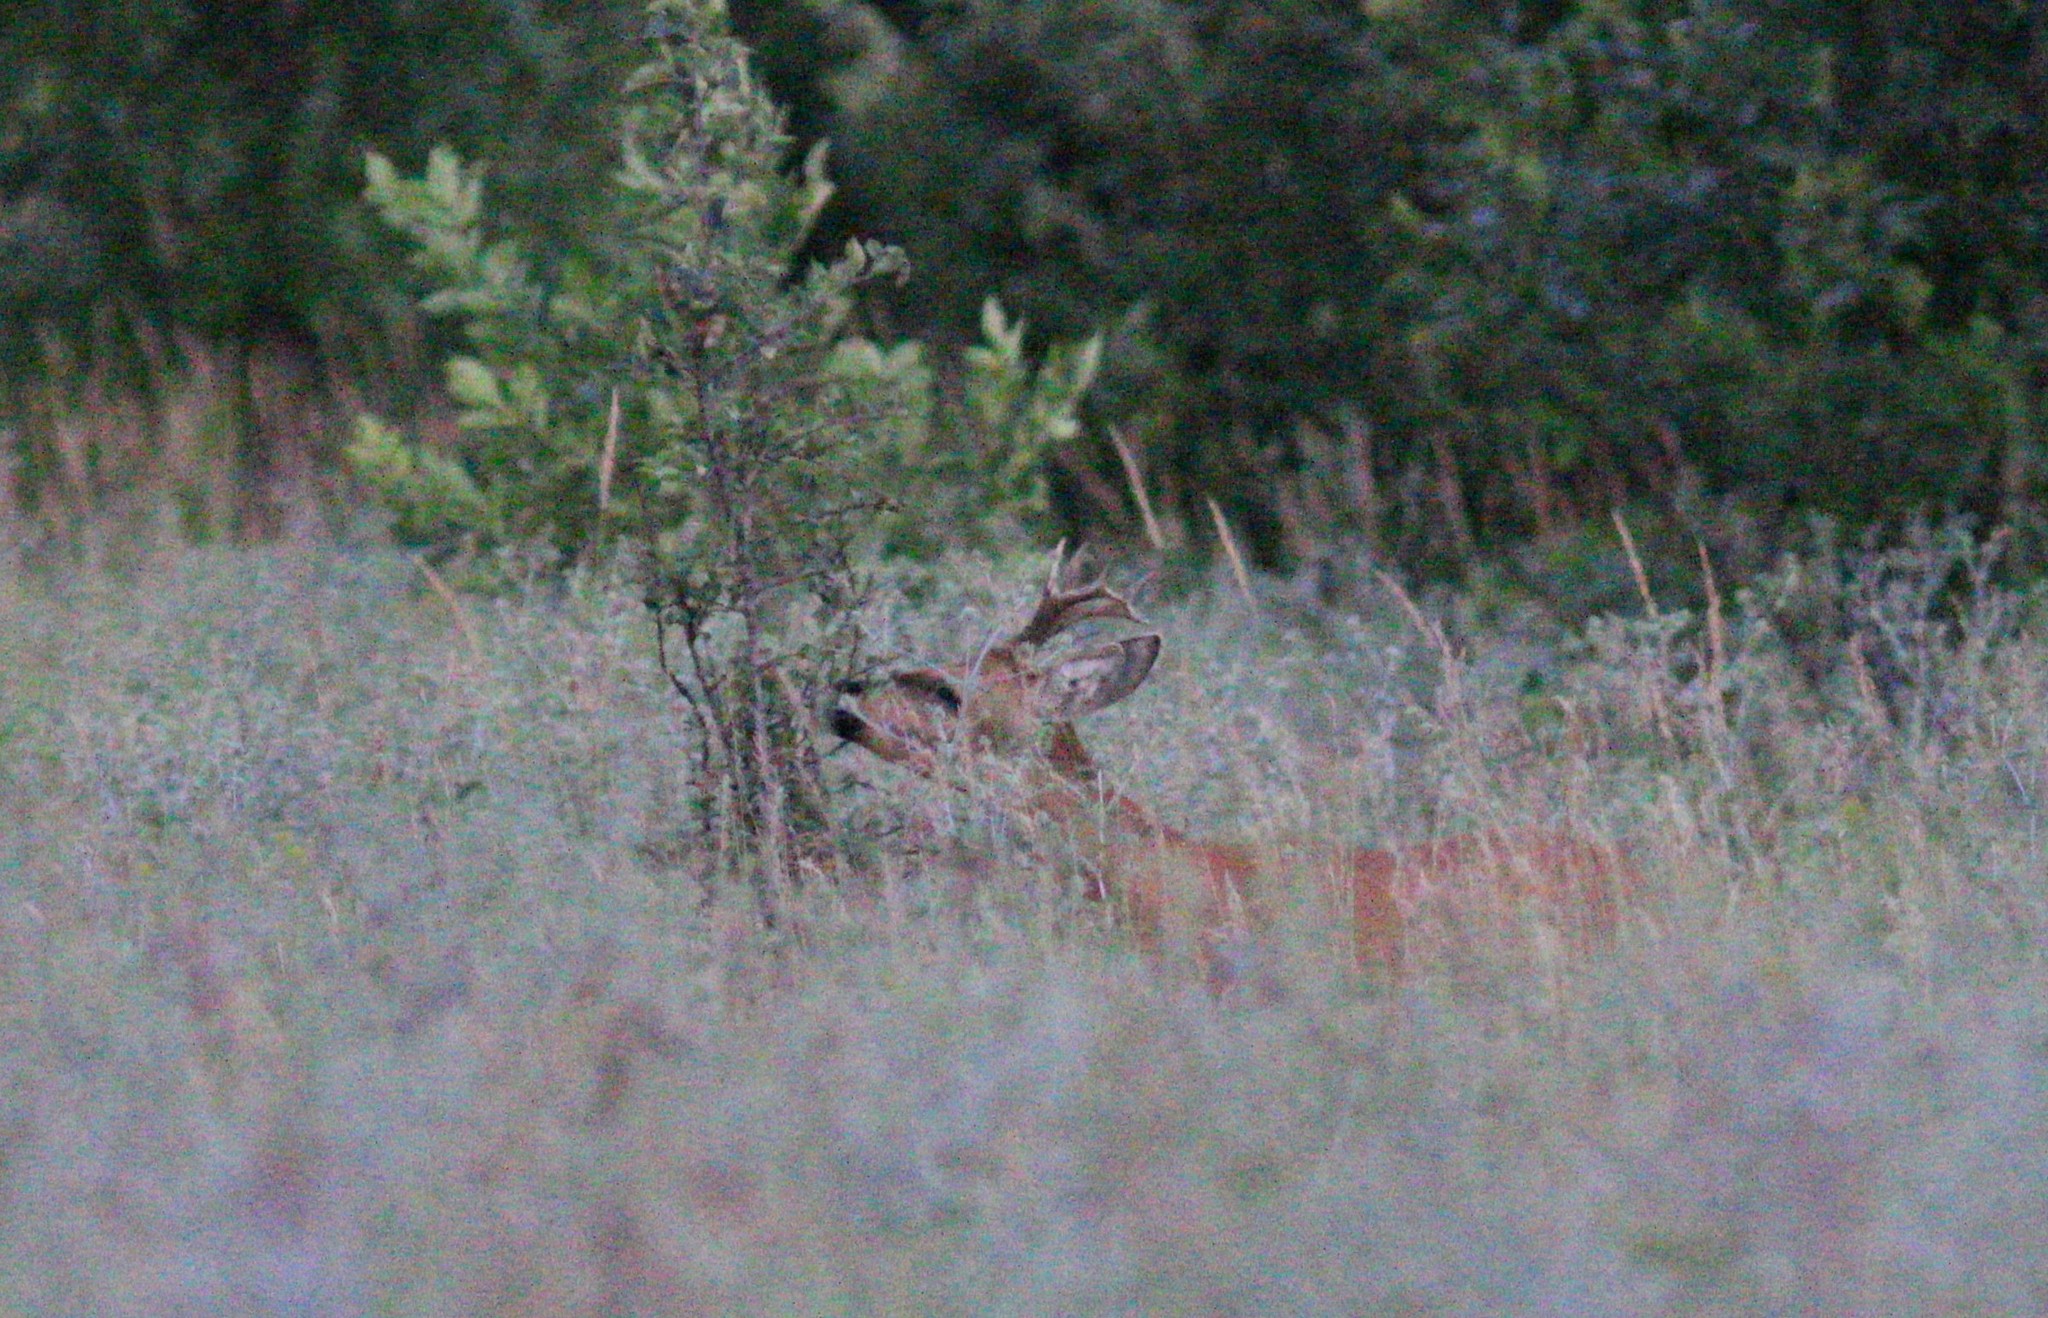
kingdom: Animalia
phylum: Chordata
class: Mammalia
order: Artiodactyla
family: Cervidae
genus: Capreolus
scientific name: Capreolus pygargus
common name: Siberian roe
